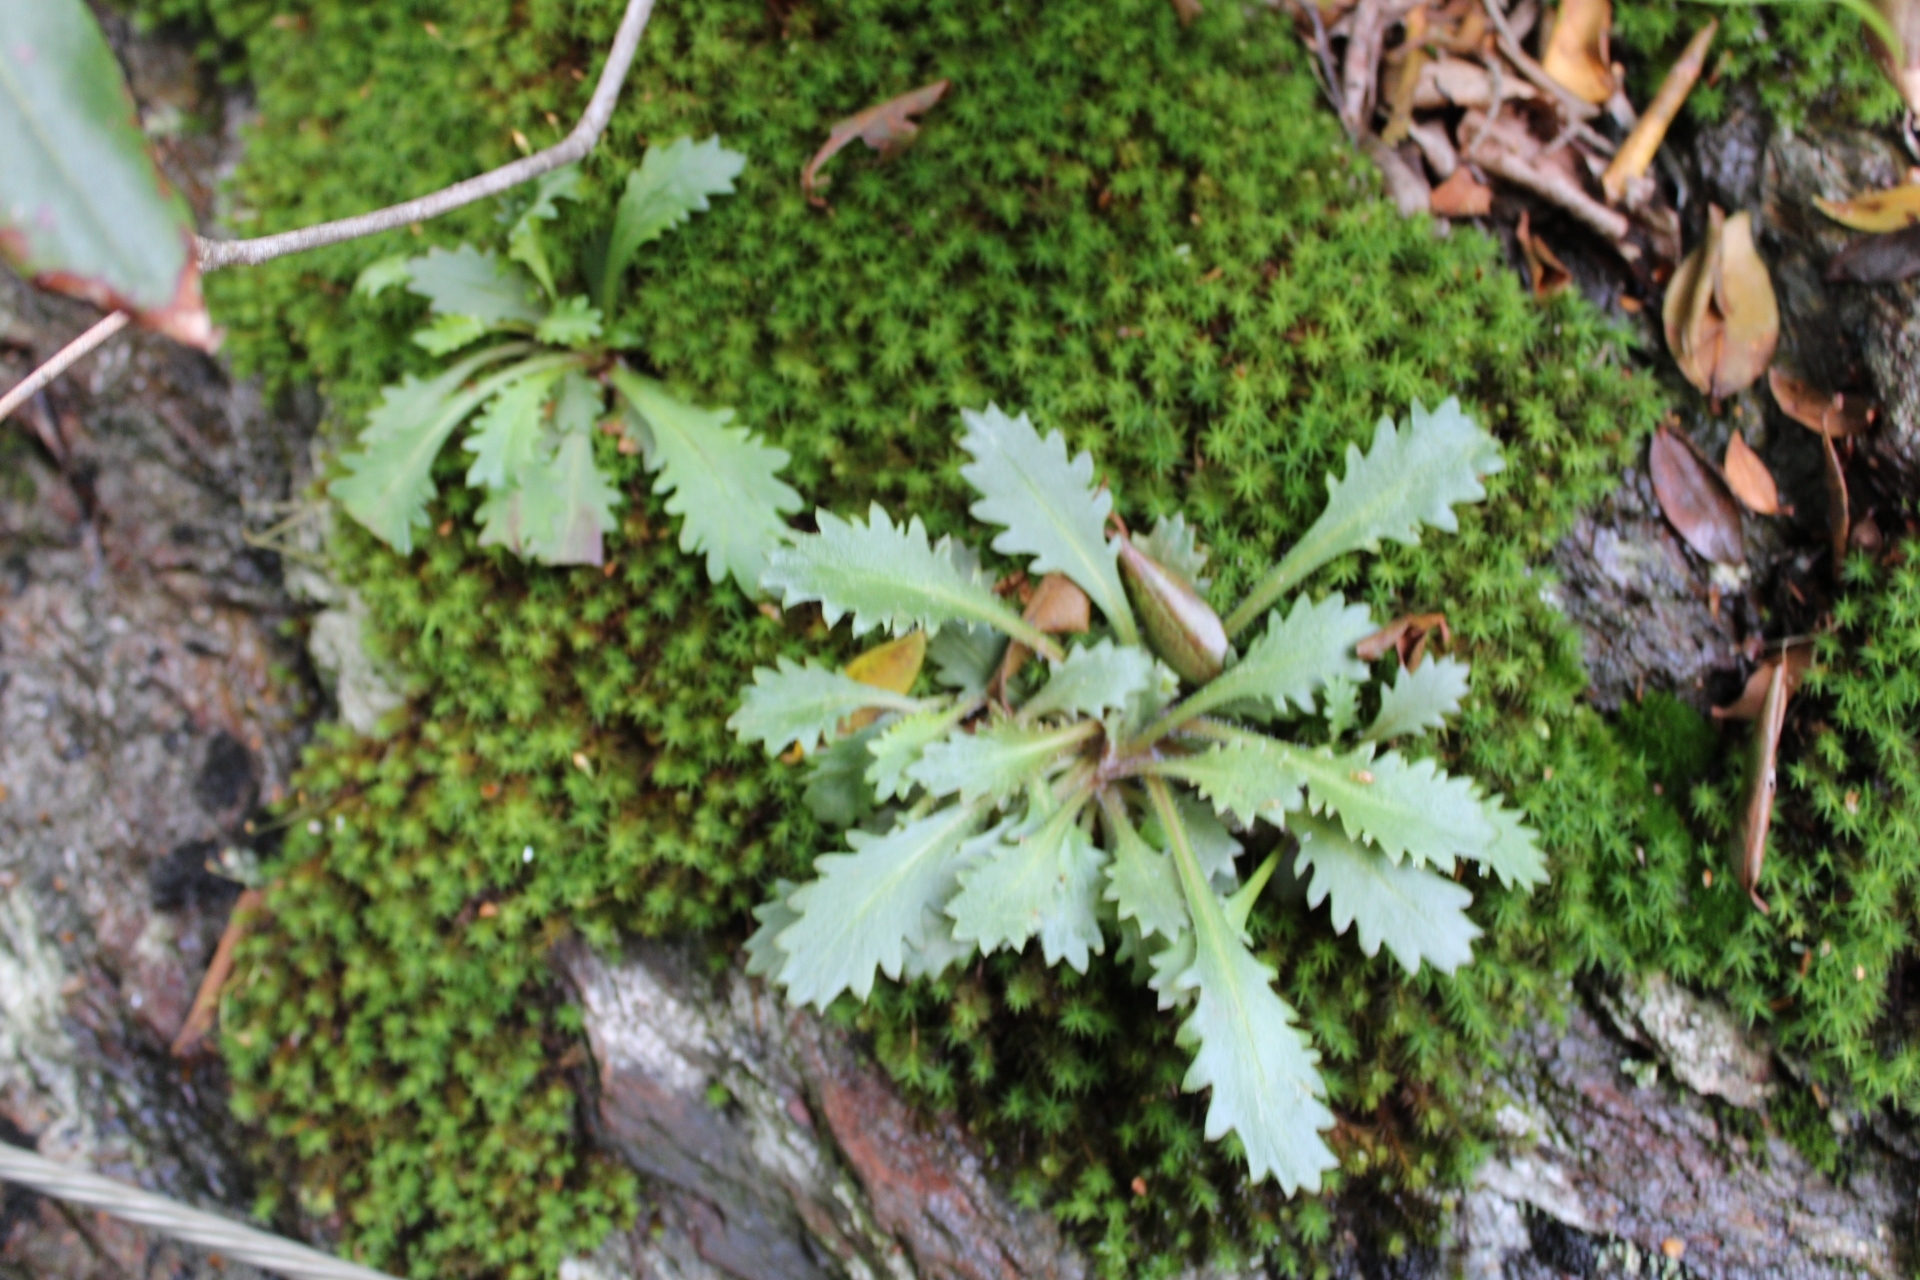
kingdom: Plantae
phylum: Tracheophyta
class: Magnoliopsida
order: Saxifragales
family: Saxifragaceae
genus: Micranthes
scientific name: Micranthes petiolaris
